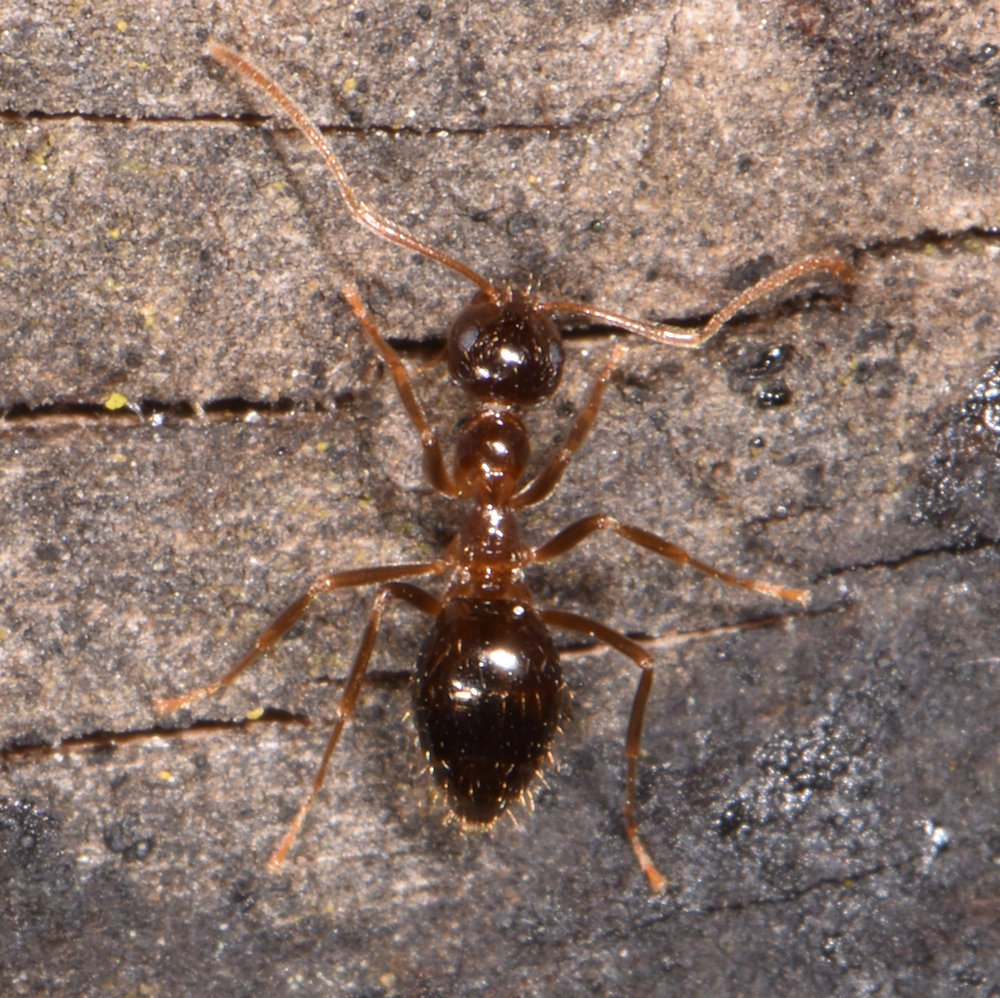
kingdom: Animalia
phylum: Arthropoda
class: Insecta
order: Hymenoptera
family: Formicidae
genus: Prenolepis
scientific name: Prenolepis imparis
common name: Small honey ant
